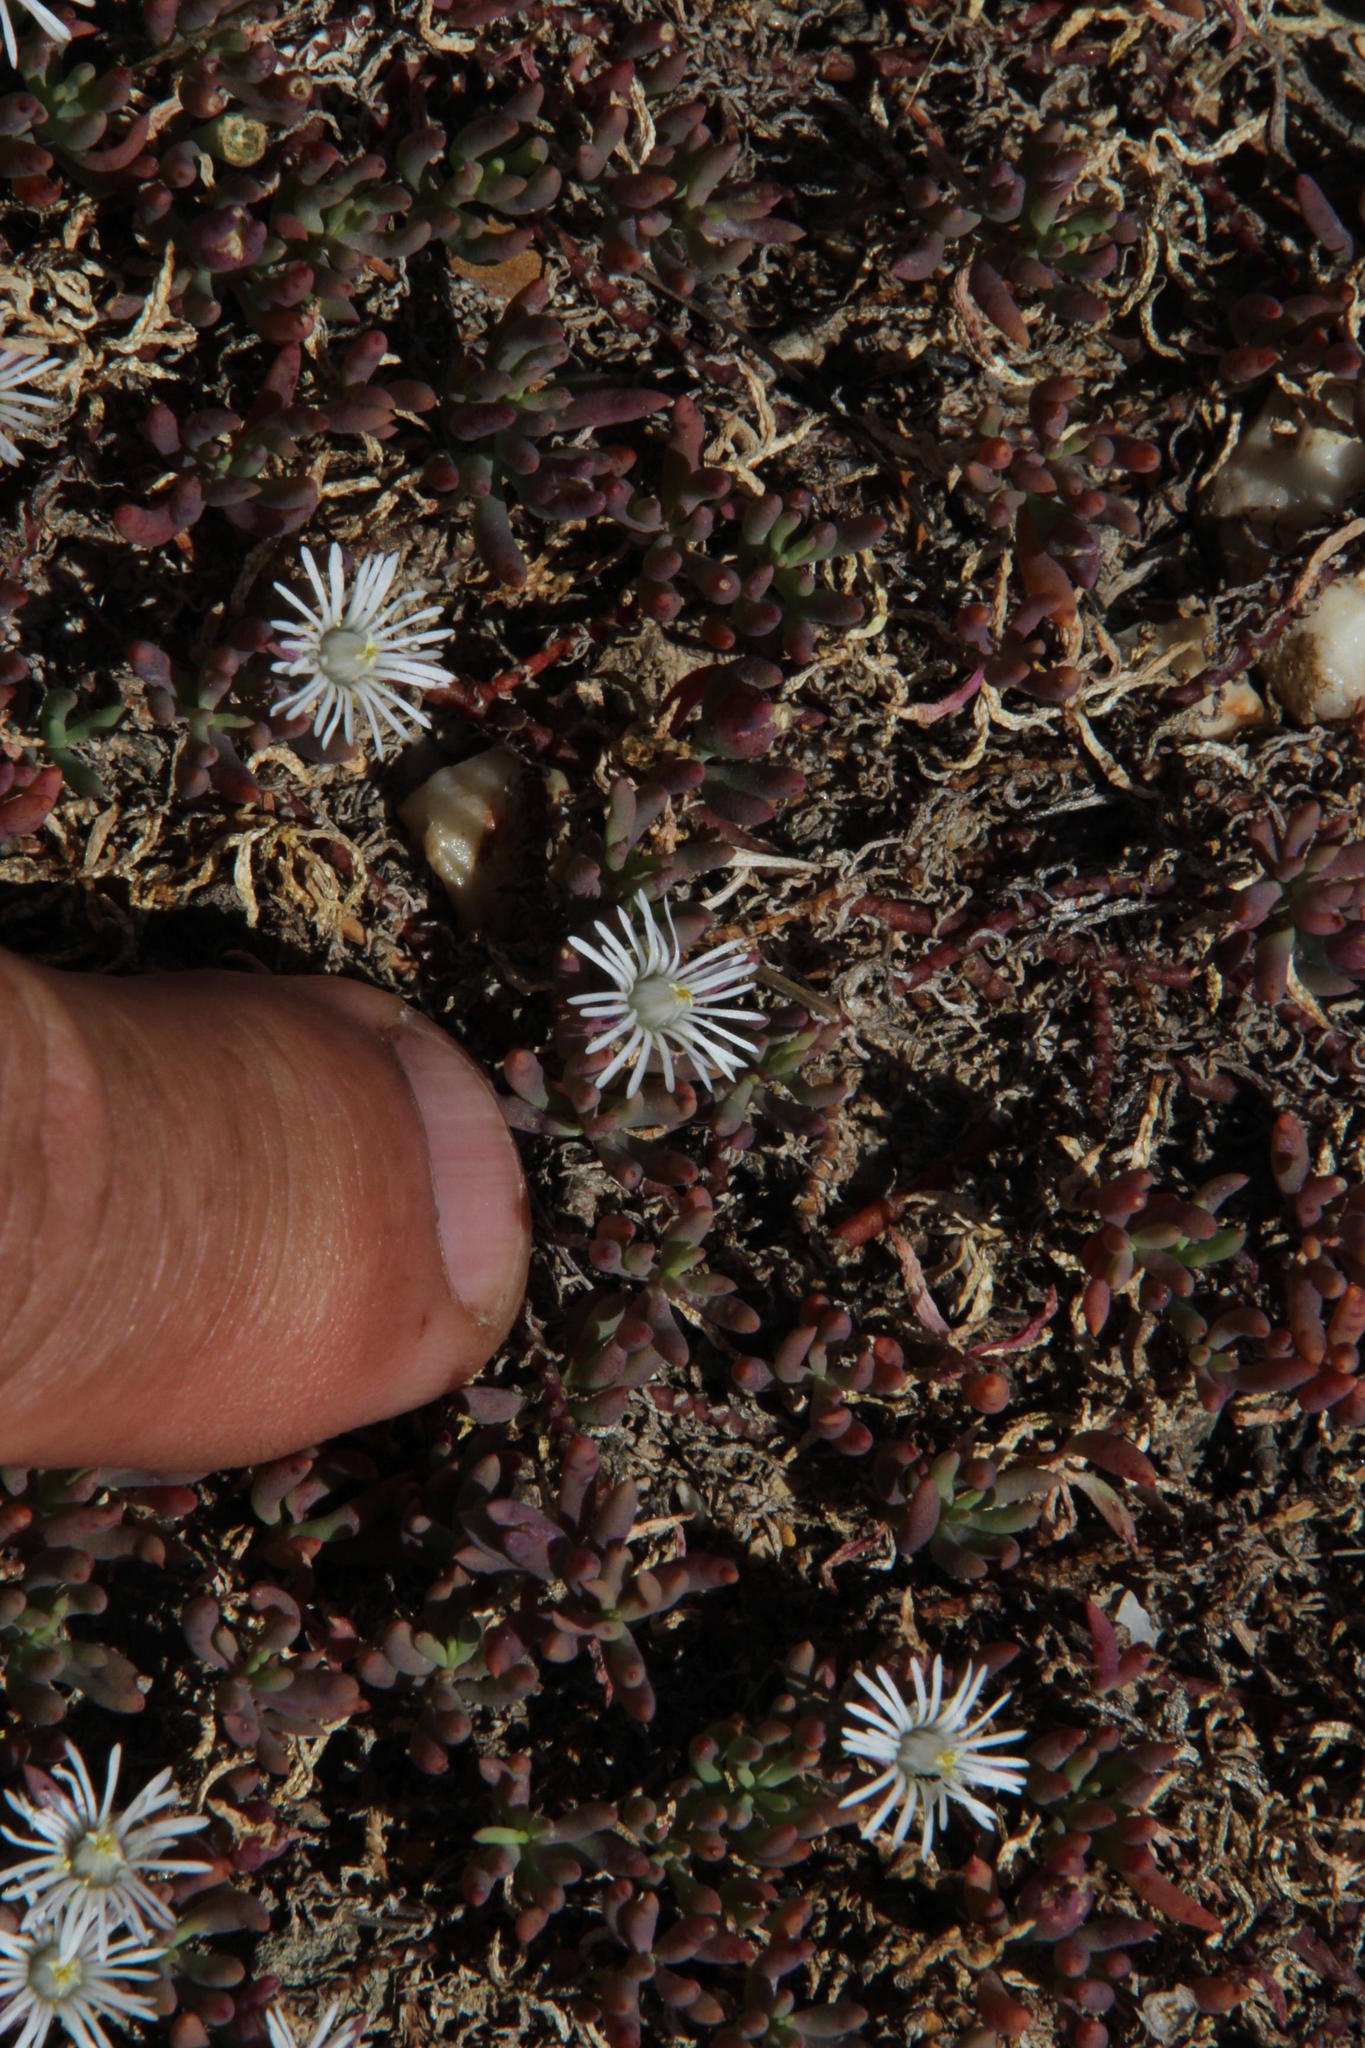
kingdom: Plantae
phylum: Tracheophyta
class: Magnoliopsida
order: Caryophyllales
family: Aizoaceae
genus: Mesembryanthemum
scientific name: Mesembryanthemum parviflorum
